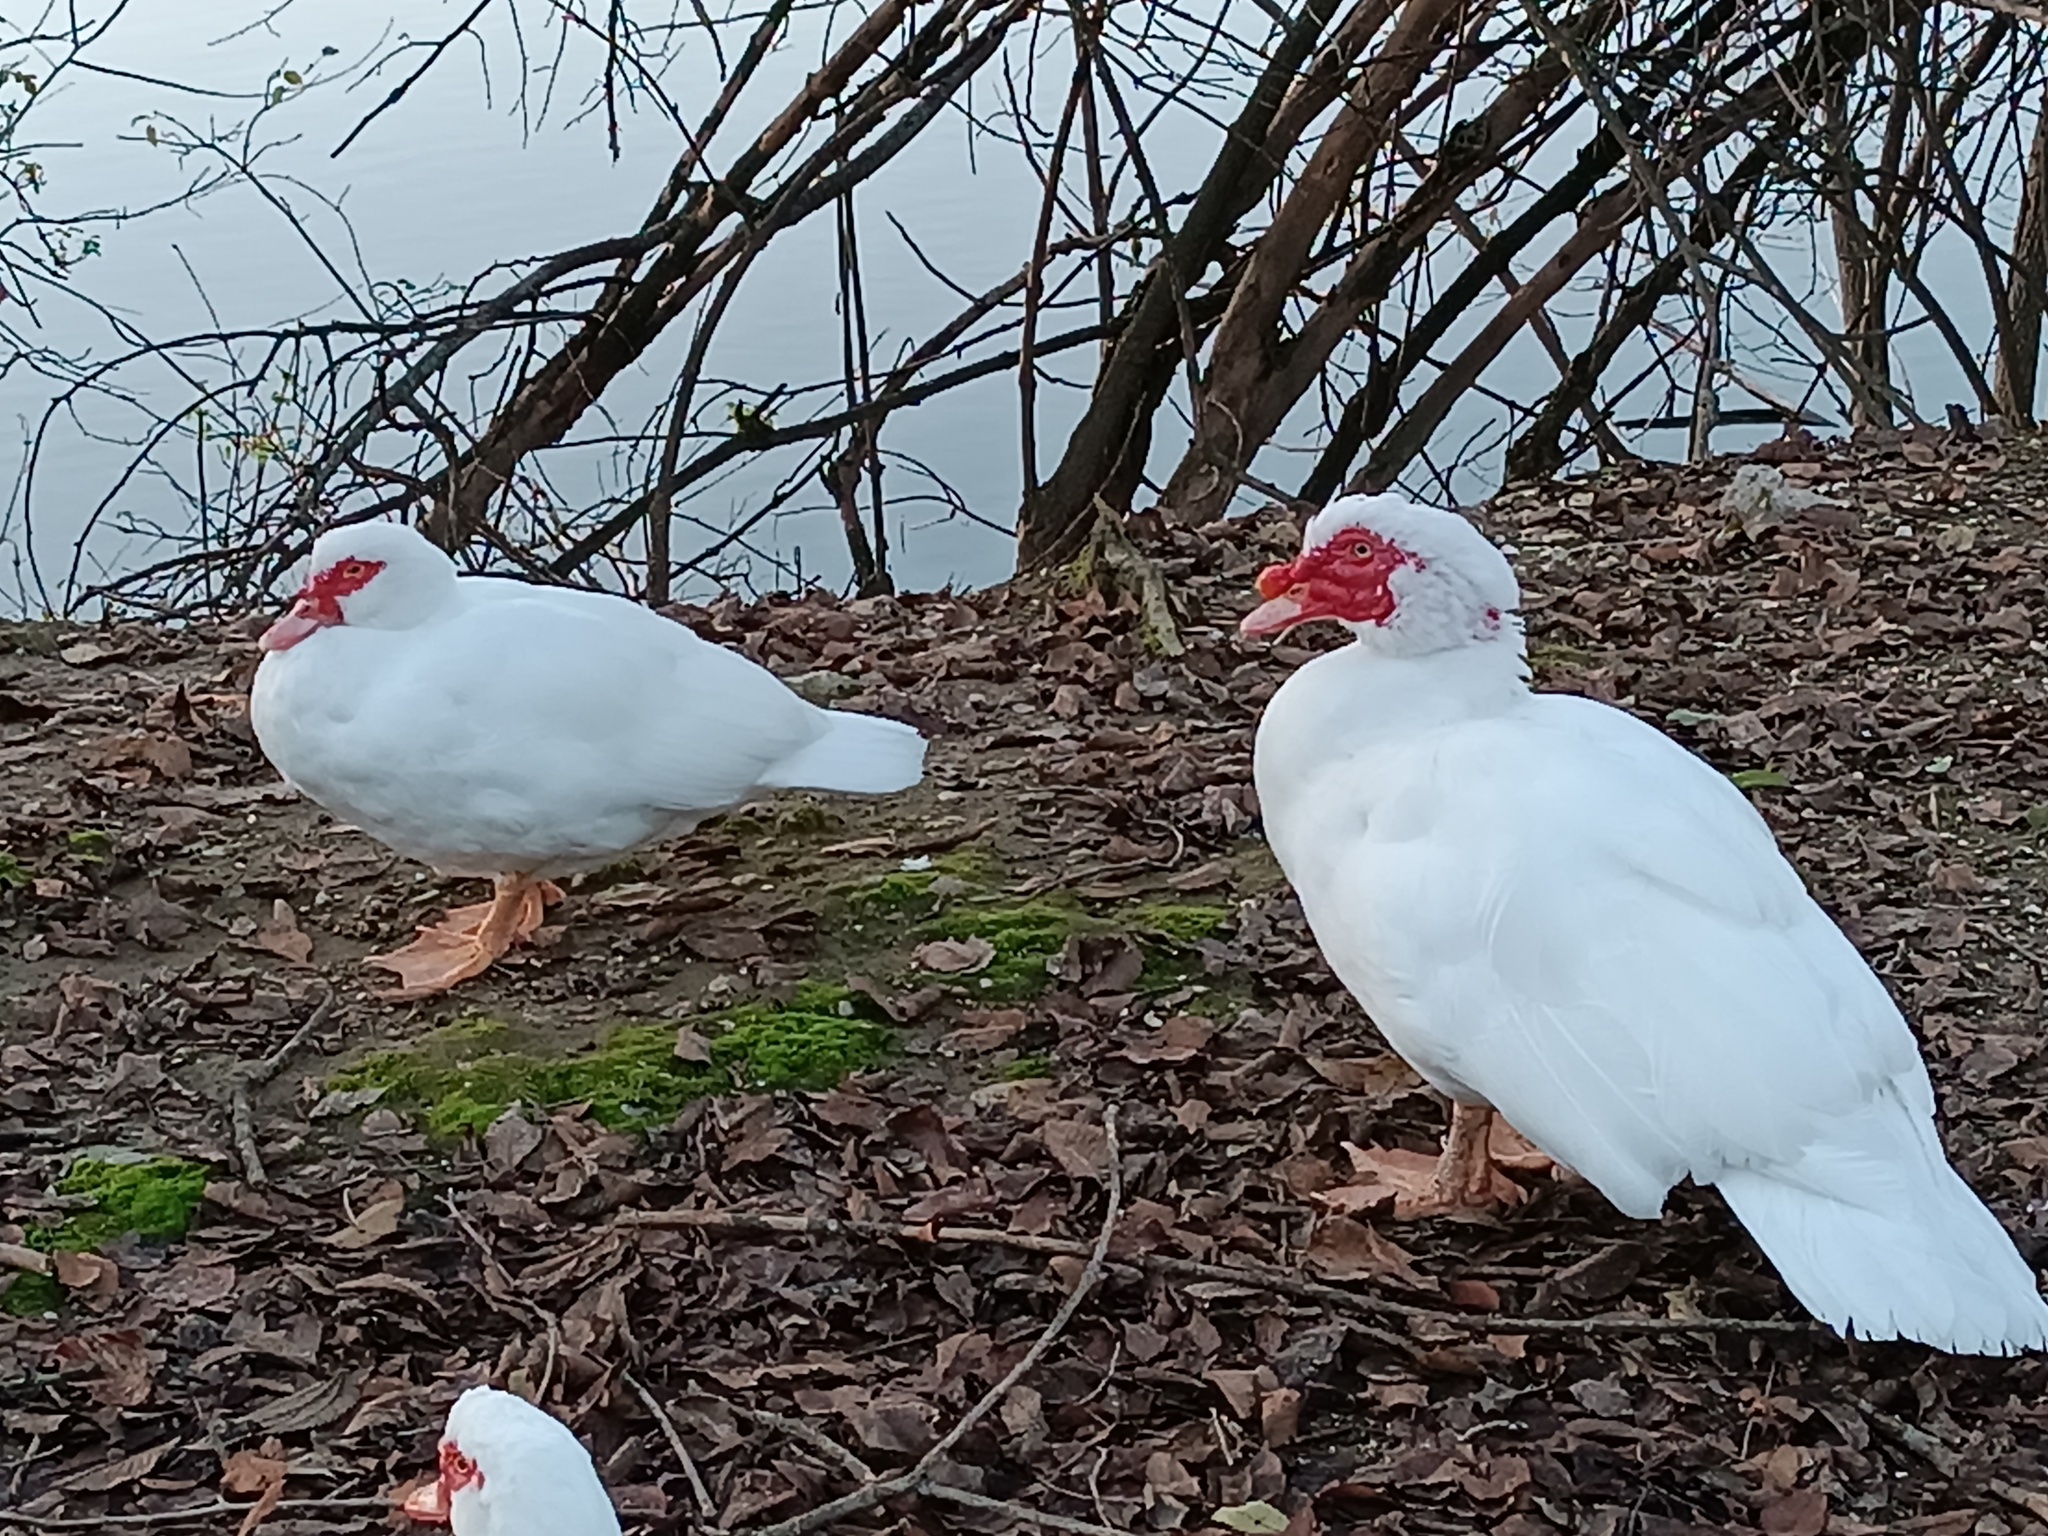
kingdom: Animalia
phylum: Chordata
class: Aves
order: Anseriformes
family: Anatidae
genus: Cairina
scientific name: Cairina moschata
